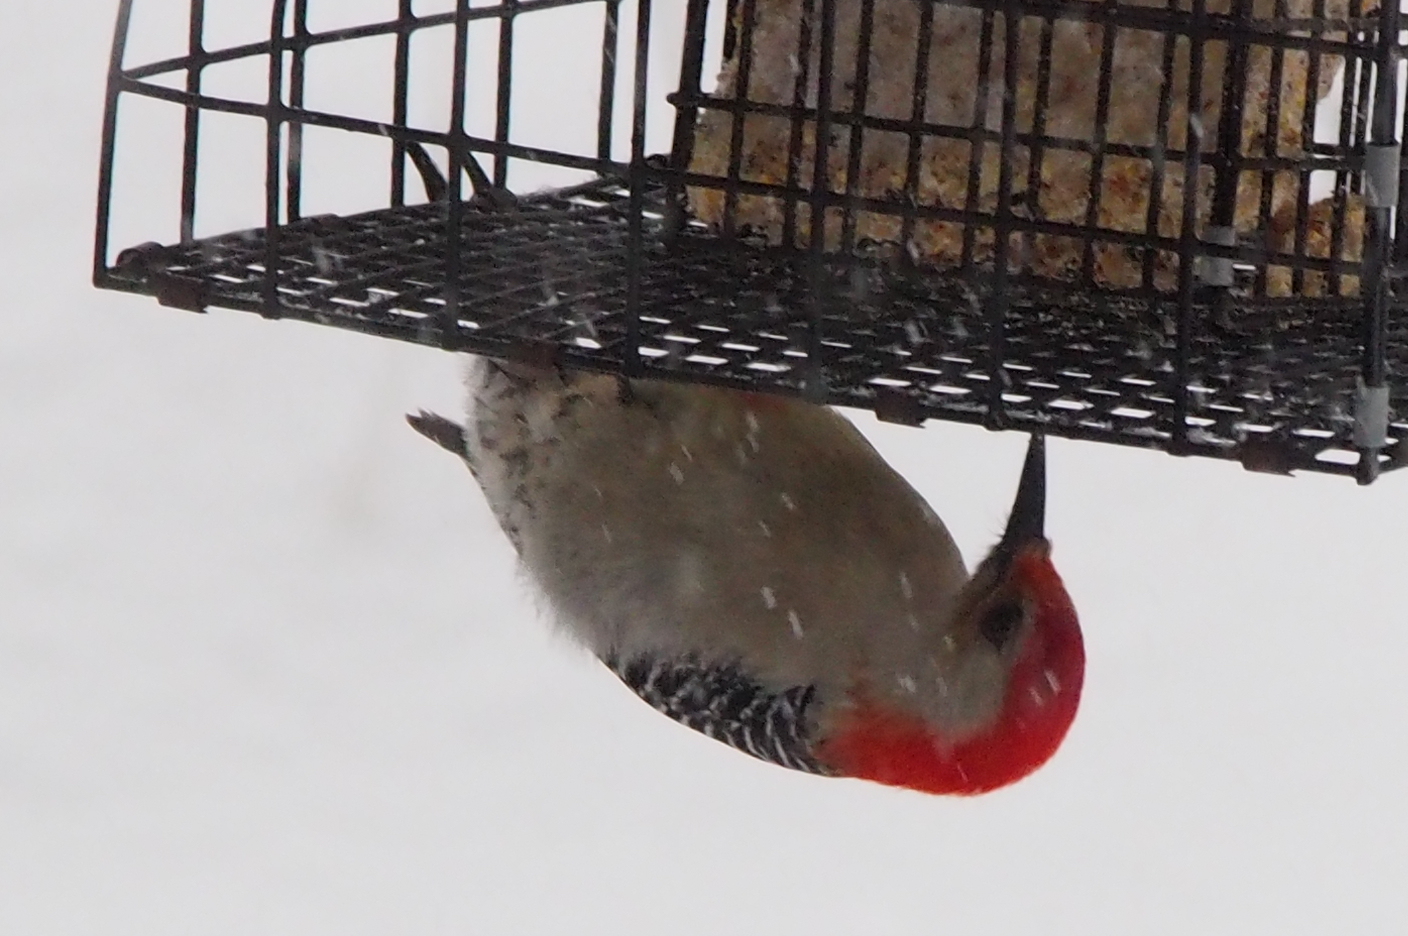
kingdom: Animalia
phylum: Chordata
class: Aves
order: Piciformes
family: Picidae
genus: Melanerpes
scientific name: Melanerpes carolinus
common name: Red-bellied woodpecker
